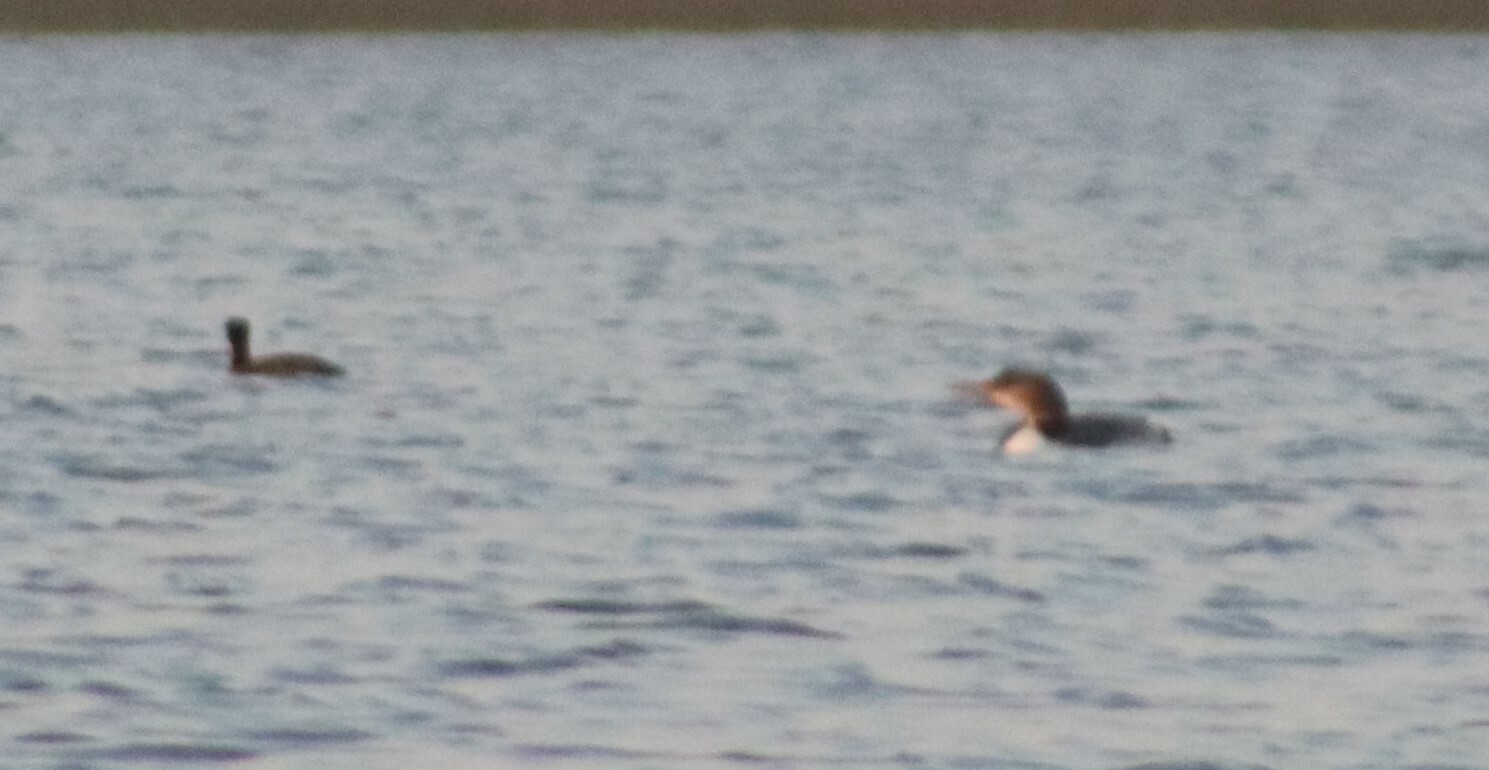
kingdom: Animalia
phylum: Chordata
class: Aves
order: Gaviiformes
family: Gaviidae
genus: Gavia
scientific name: Gavia immer
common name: Common loon
